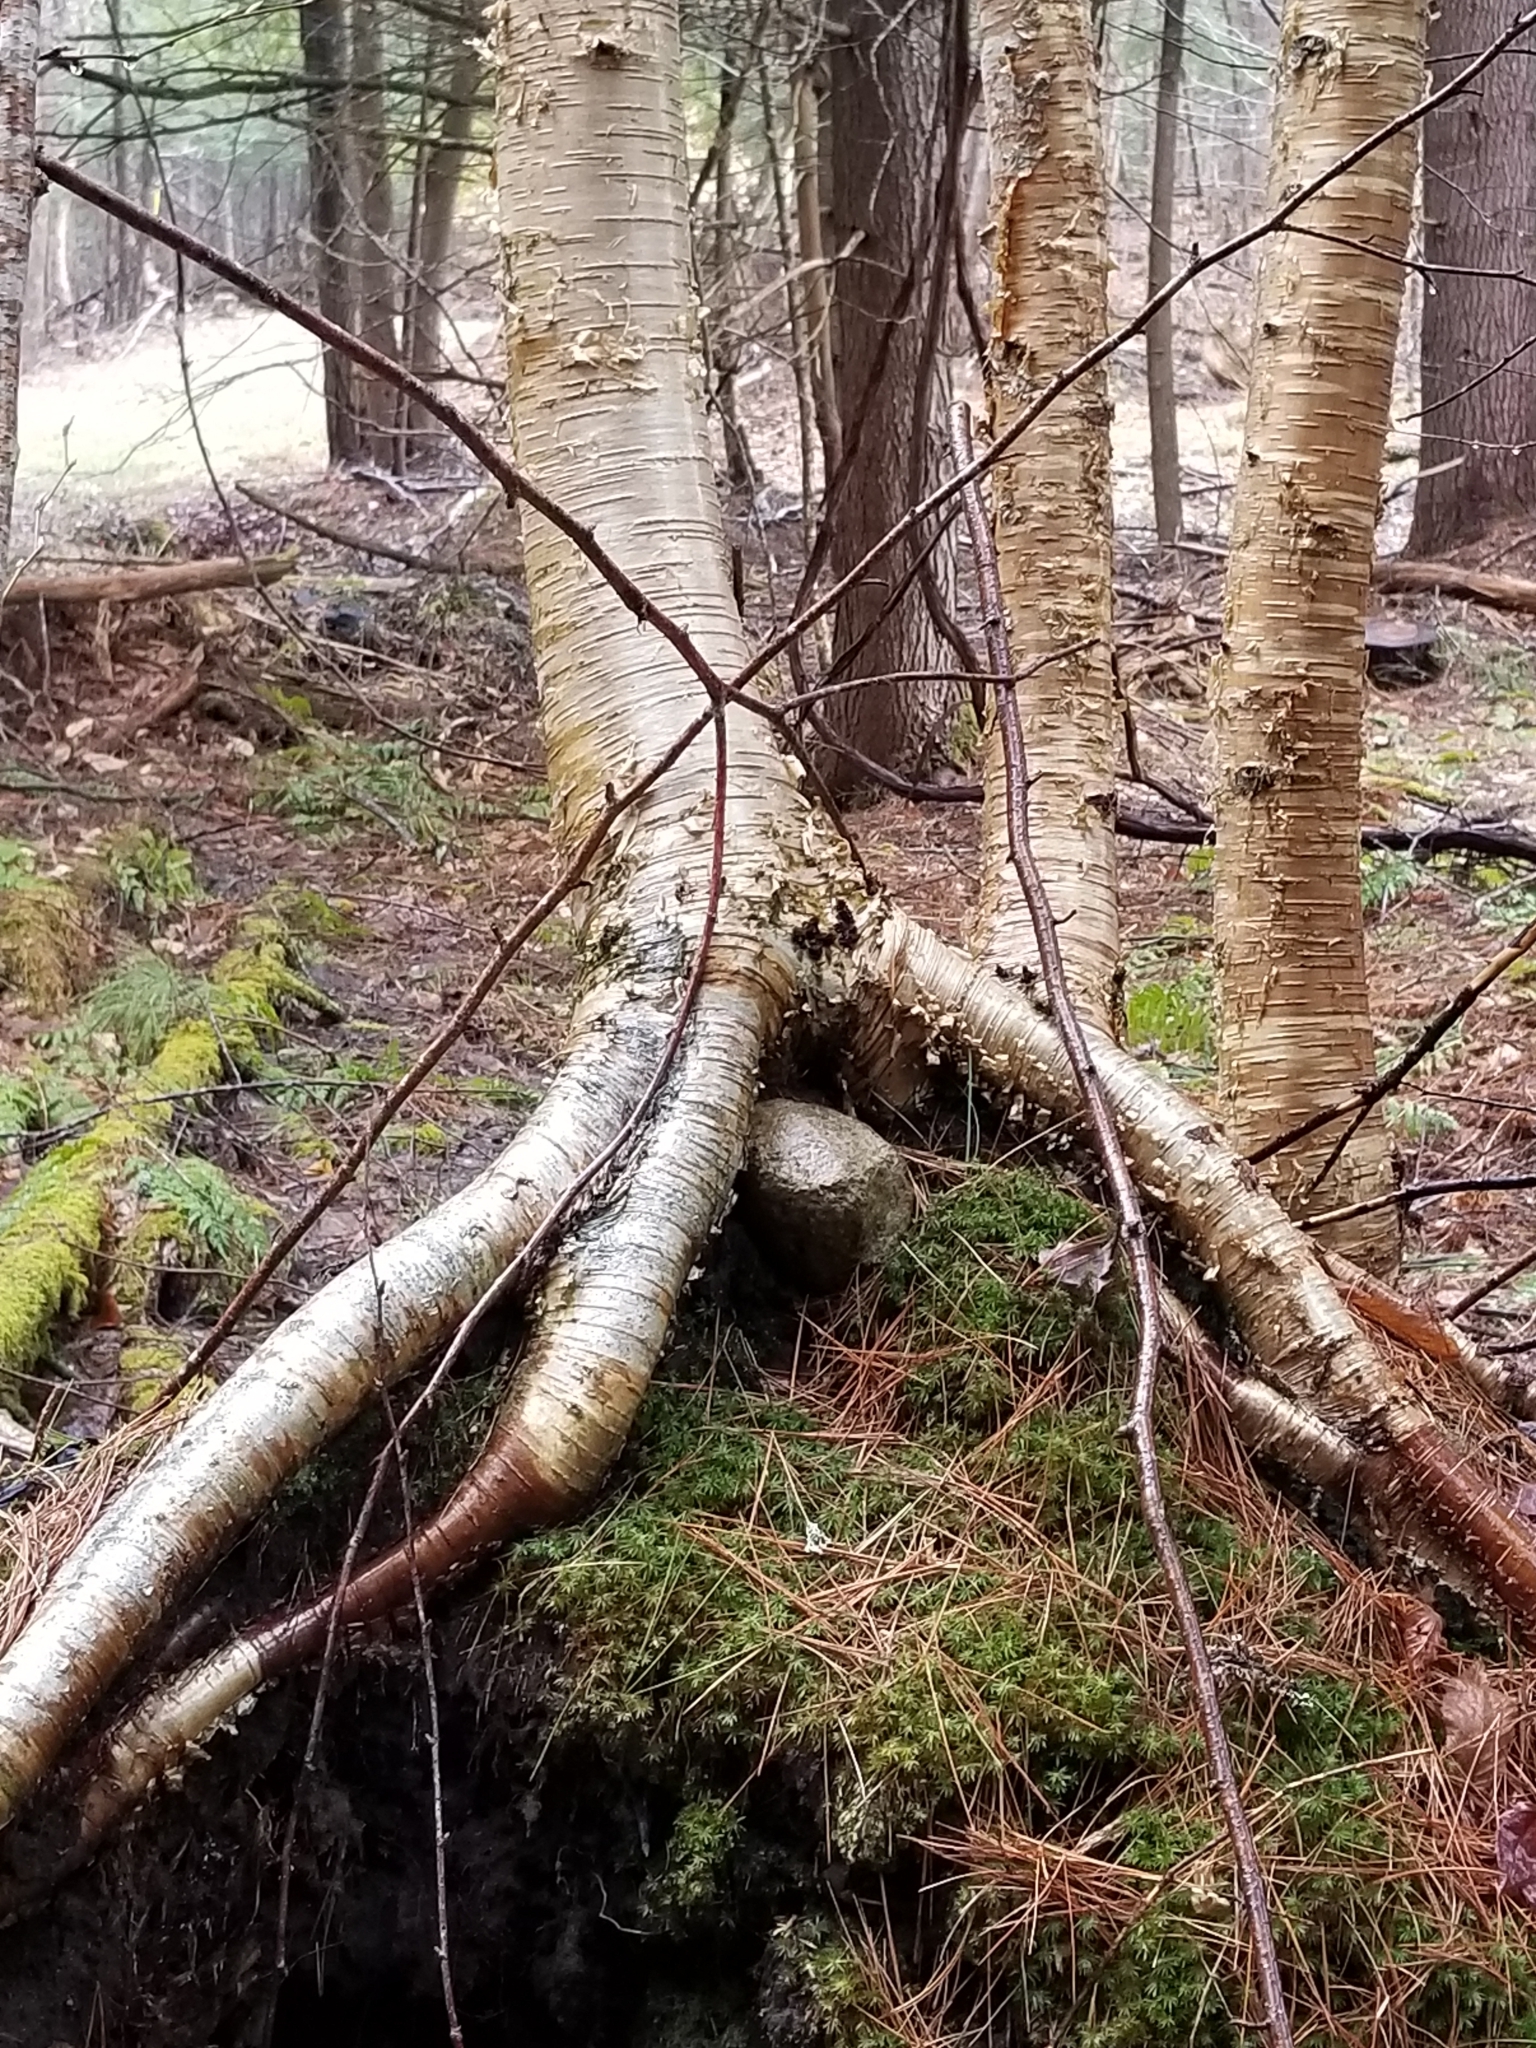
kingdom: Plantae
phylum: Tracheophyta
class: Magnoliopsida
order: Fagales
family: Betulaceae
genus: Betula
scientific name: Betula alleghaniensis
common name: Yellow birch
